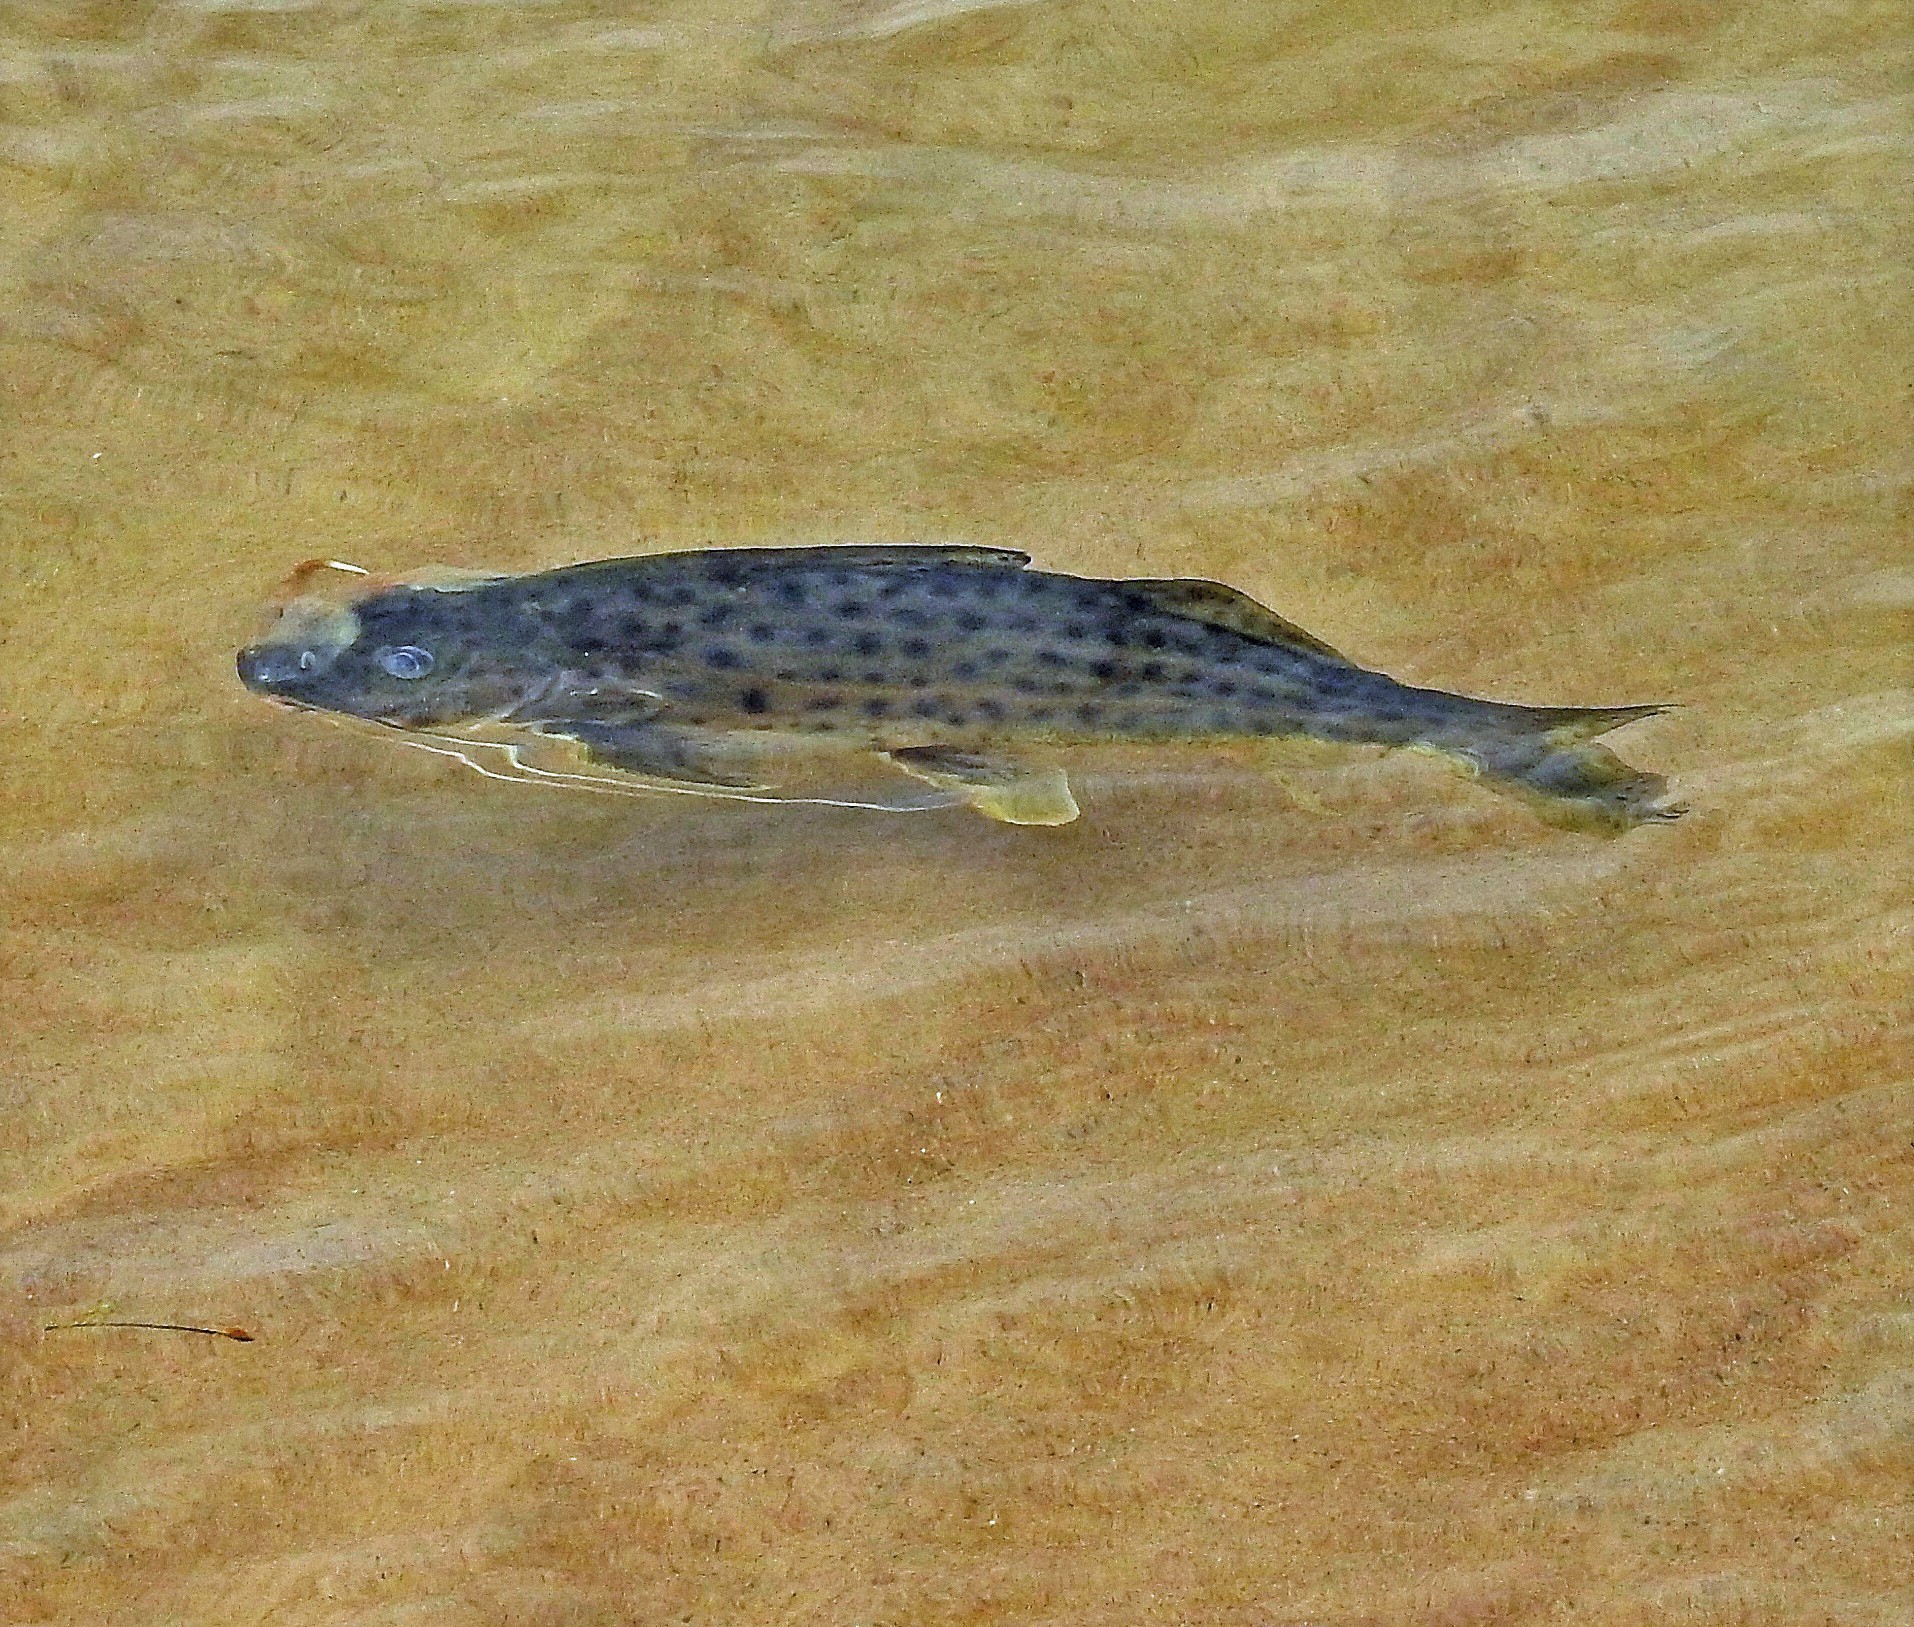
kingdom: Animalia
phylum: Chordata
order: Siluriformes
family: Pimelodidae
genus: Pimelodus
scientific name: Pimelodus maculatus
